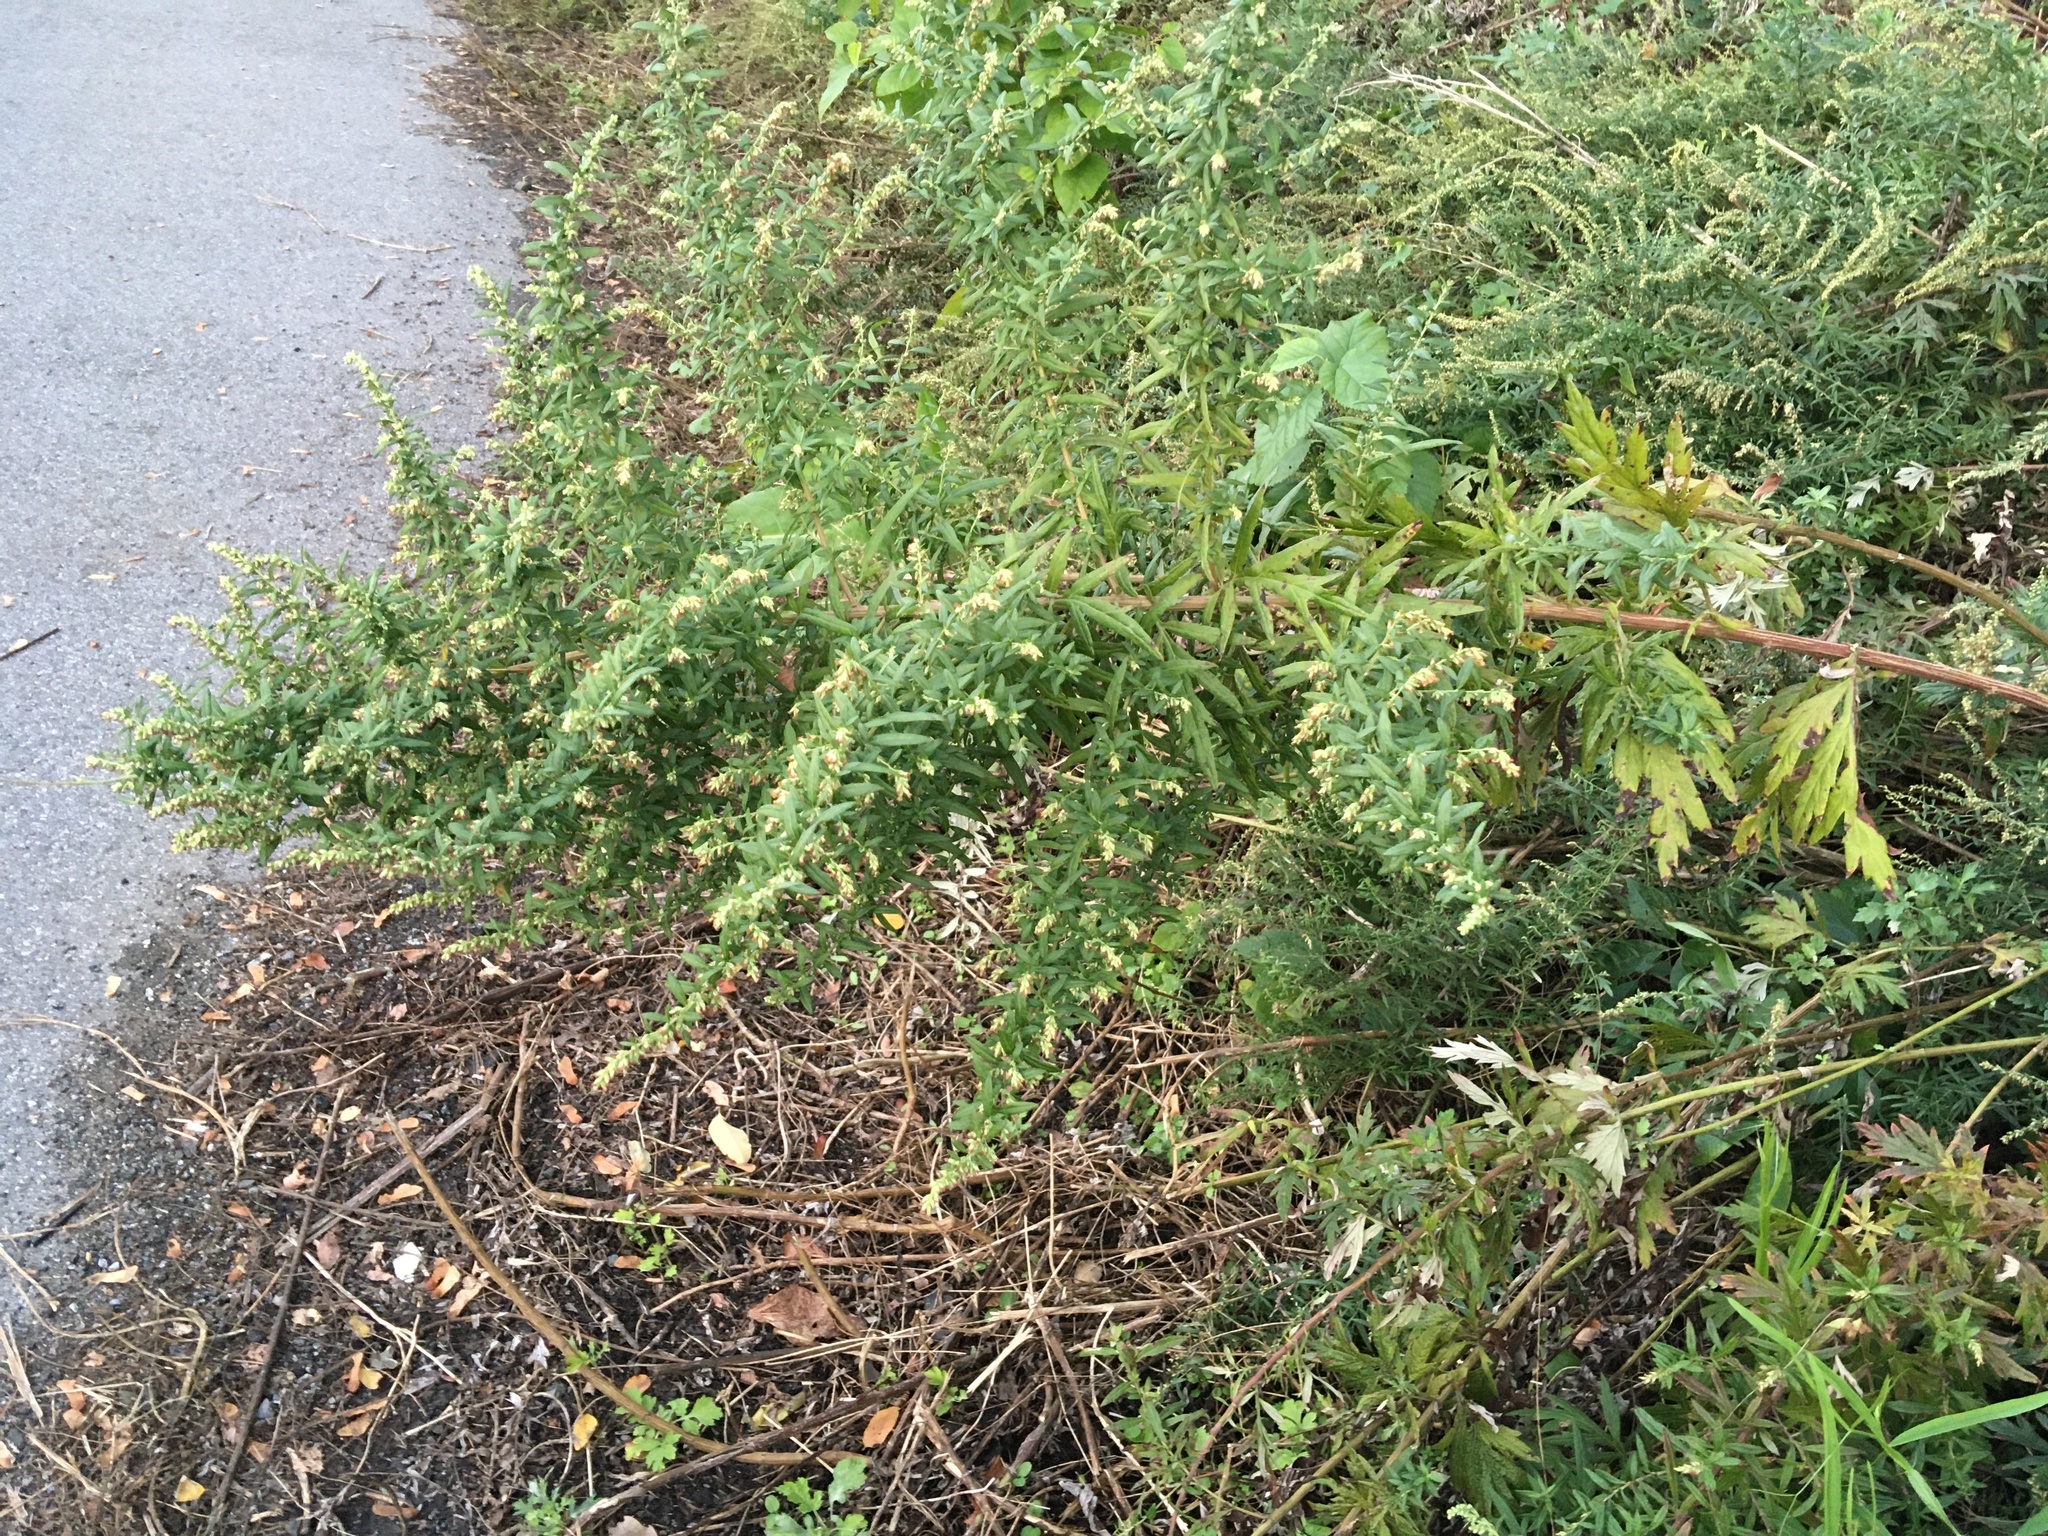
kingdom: Plantae
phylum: Tracheophyta
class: Magnoliopsida
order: Asterales
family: Asteraceae
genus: Artemisia
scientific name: Artemisia vulgaris
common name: Mugwort
